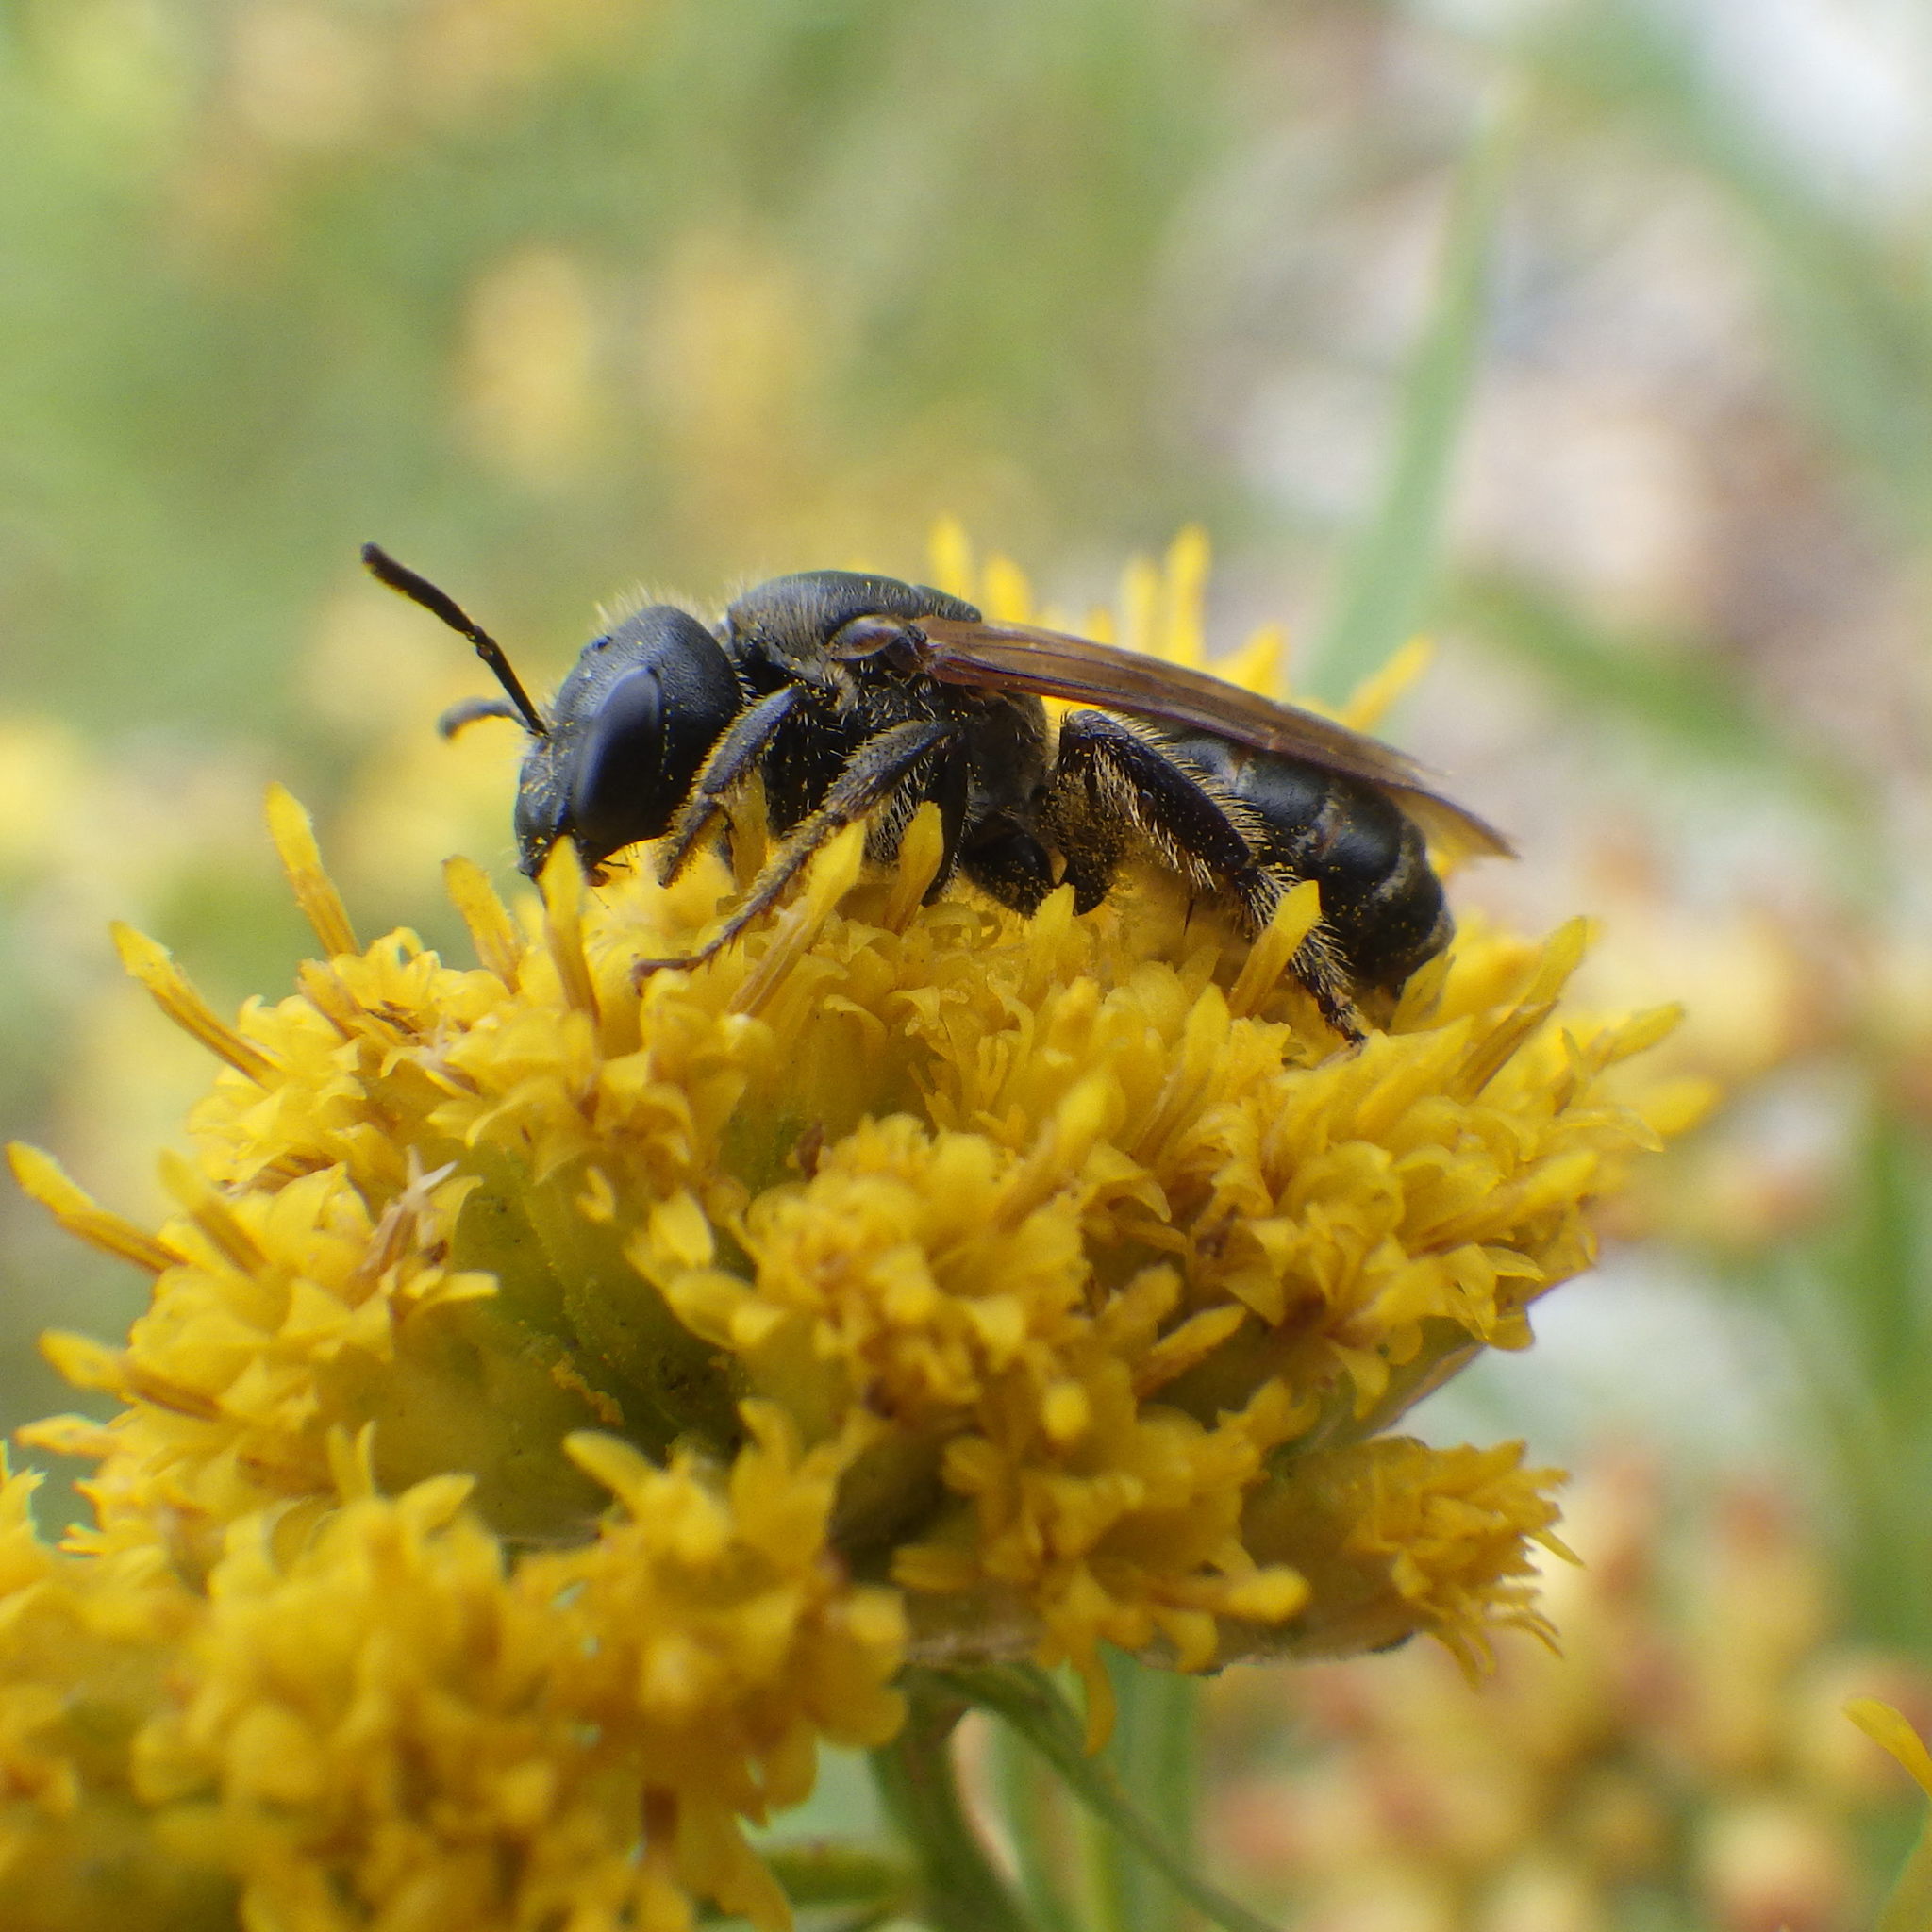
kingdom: Animalia
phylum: Arthropoda
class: Insecta
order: Hymenoptera
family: Halictidae
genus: Halictus
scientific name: Halictus ligatus
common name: Ligated furrow bee
